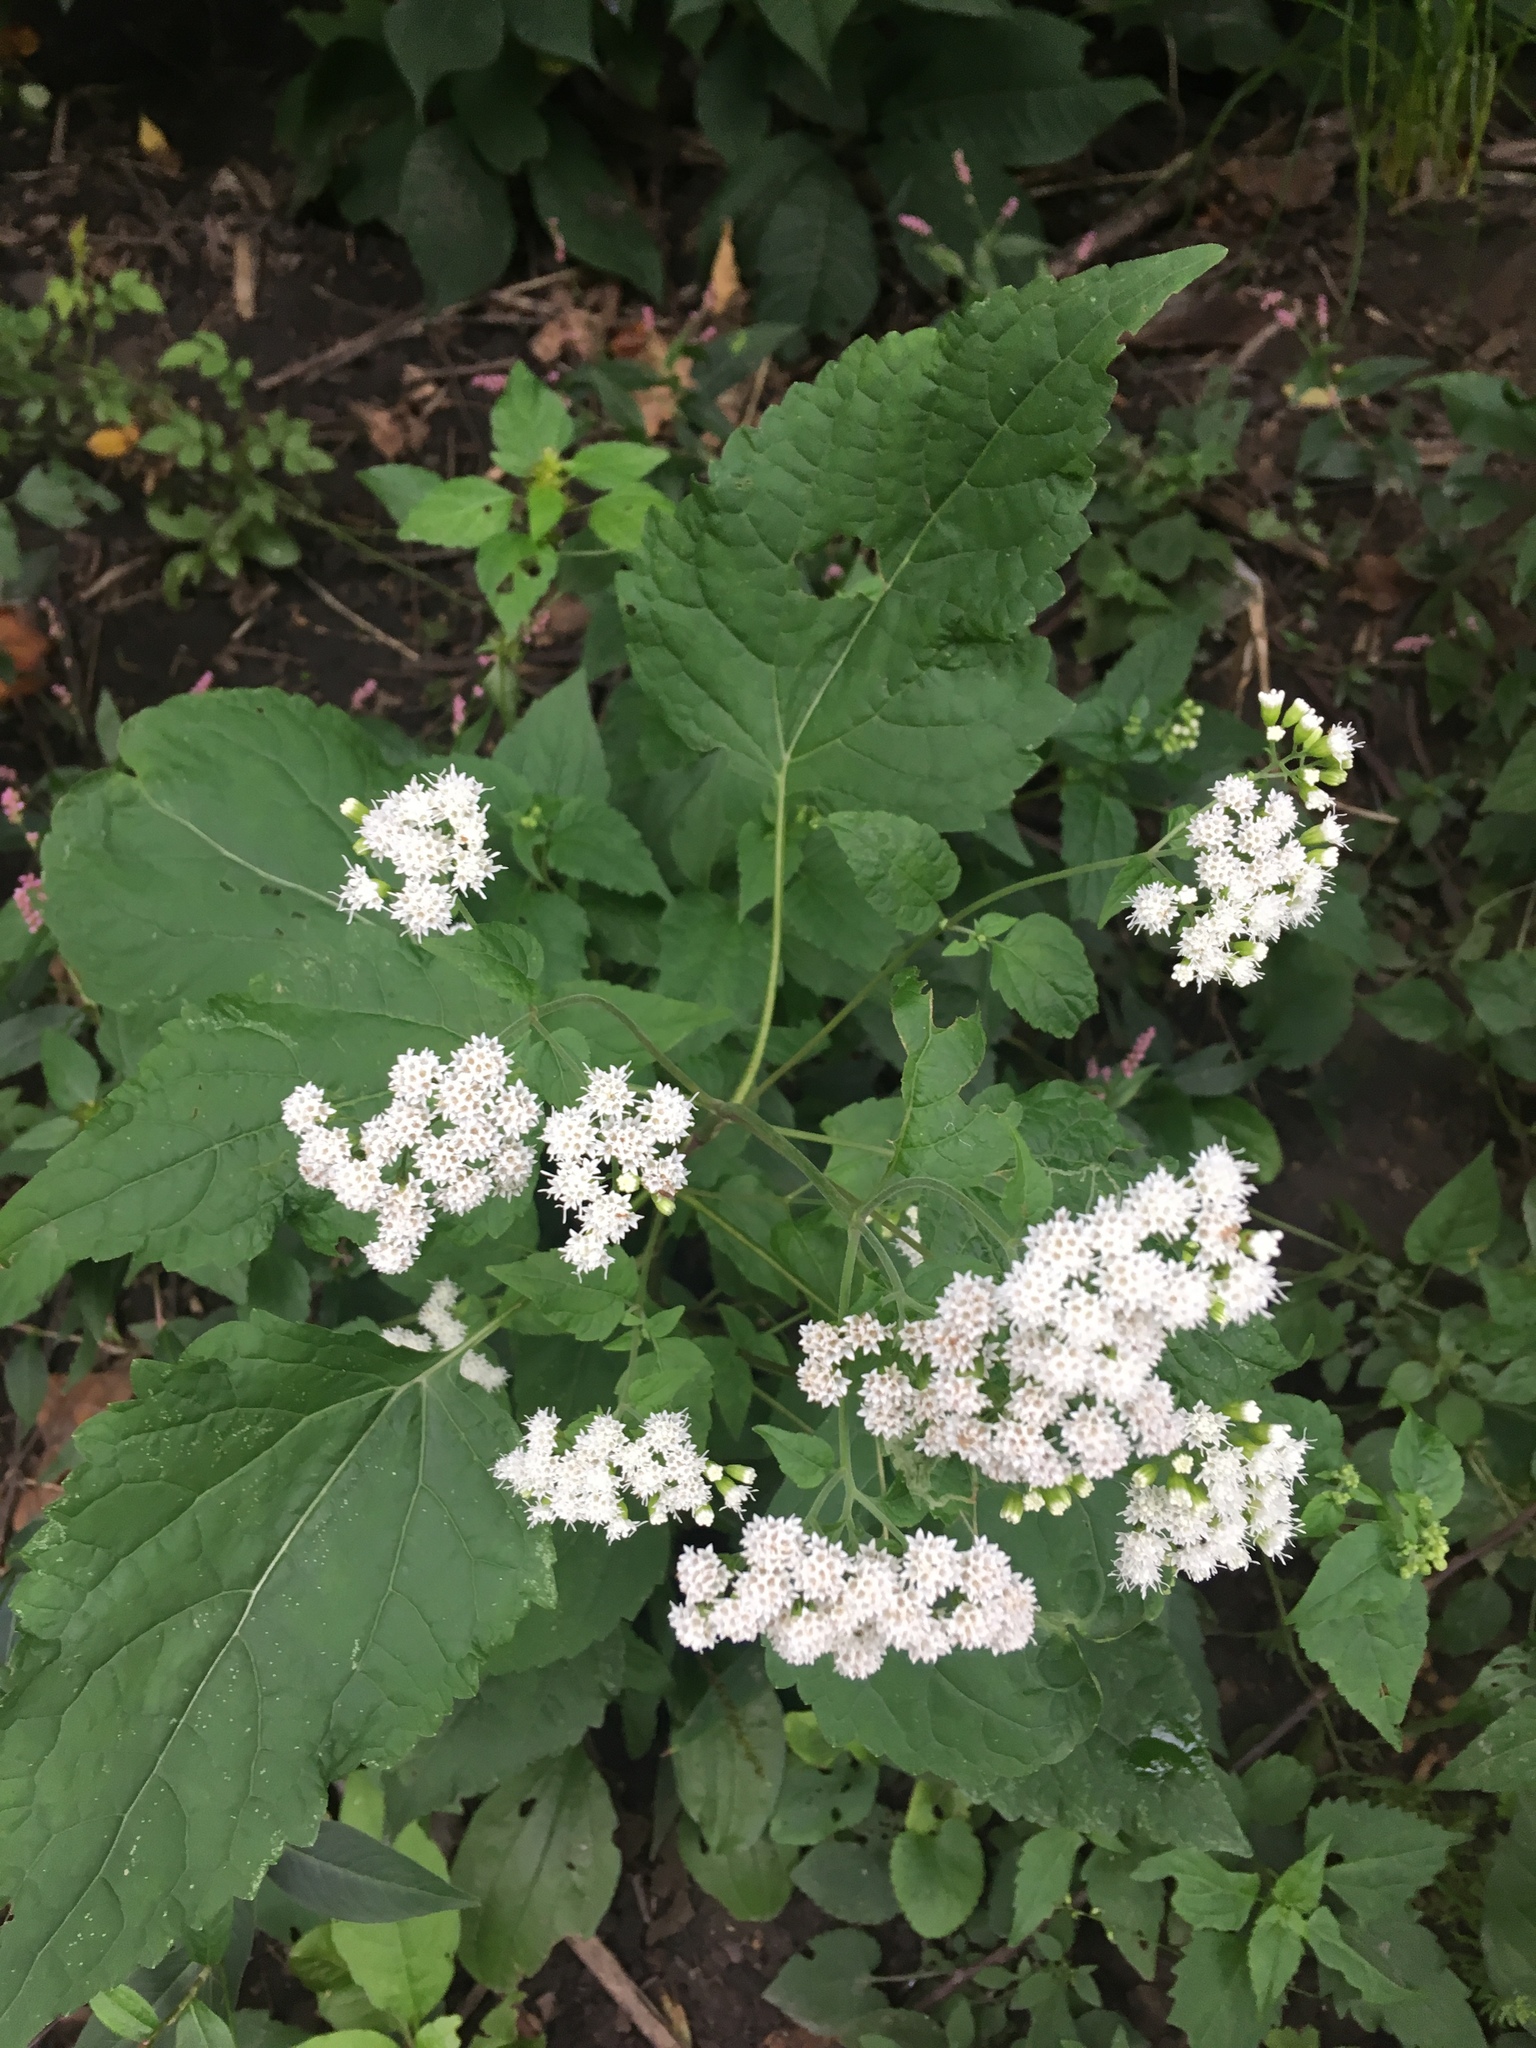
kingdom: Plantae
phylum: Tracheophyta
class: Magnoliopsida
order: Asterales
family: Asteraceae
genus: Ageratina
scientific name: Ageratina altissima
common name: White snakeroot
